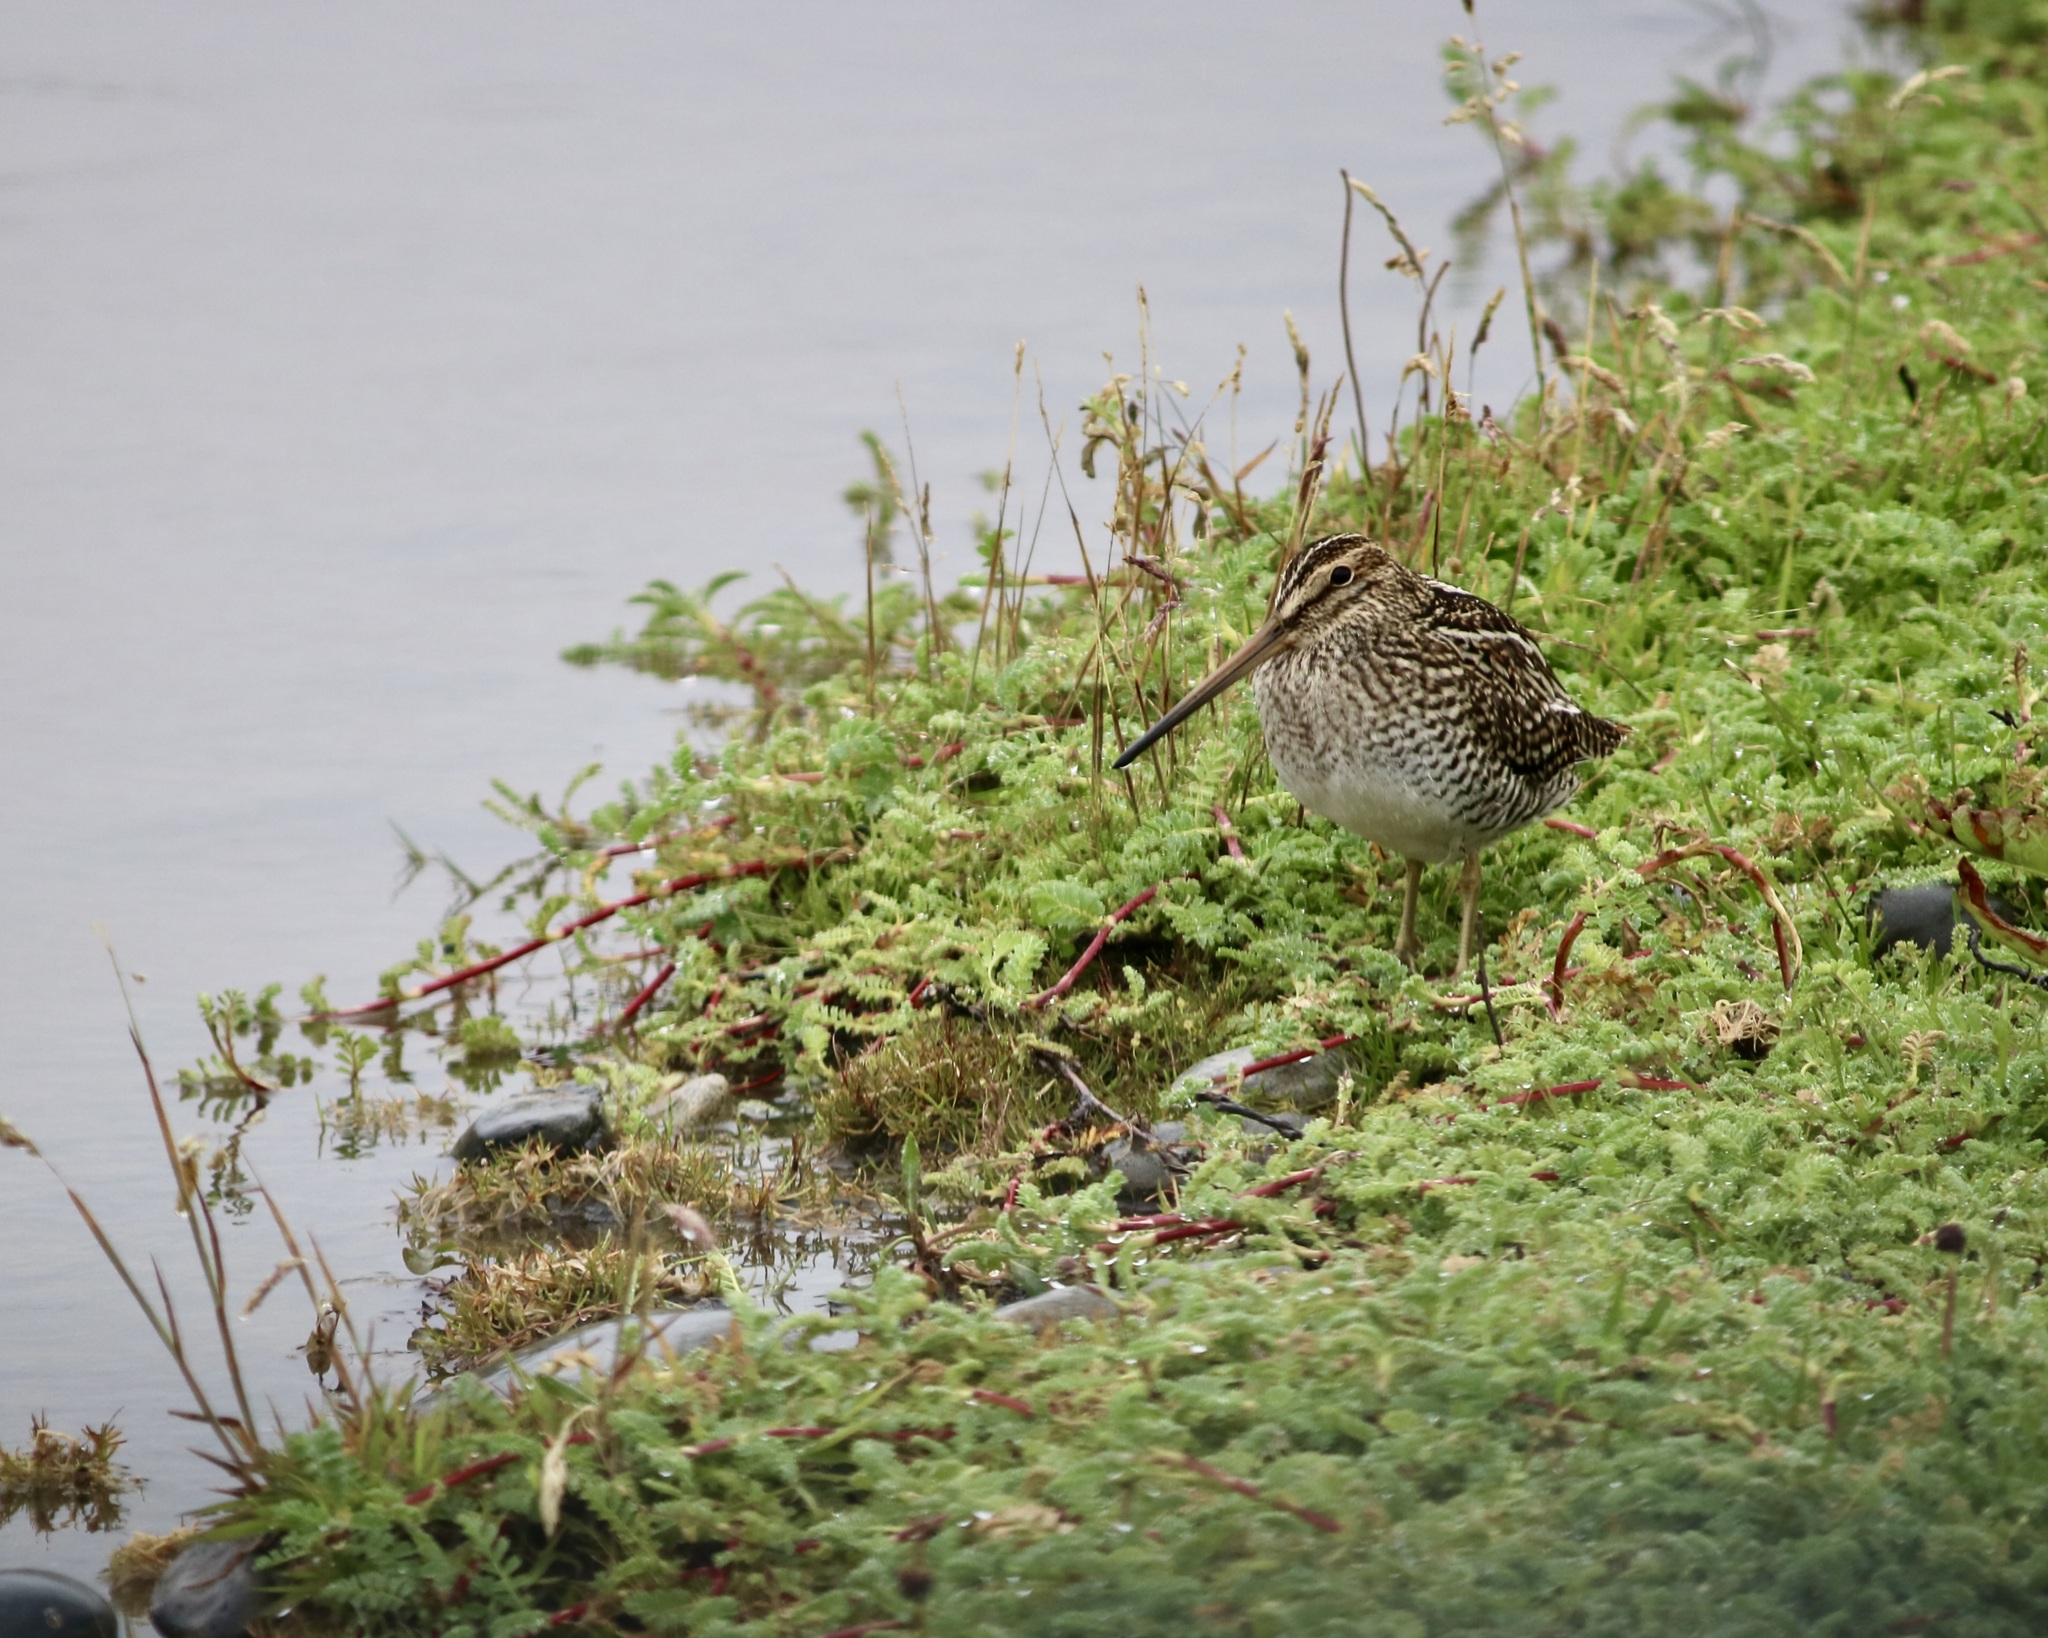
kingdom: Animalia
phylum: Chordata
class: Aves
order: Charadriiformes
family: Scolopacidae
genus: Gallinago
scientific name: Gallinago magellanica
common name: Magellanic snipe
